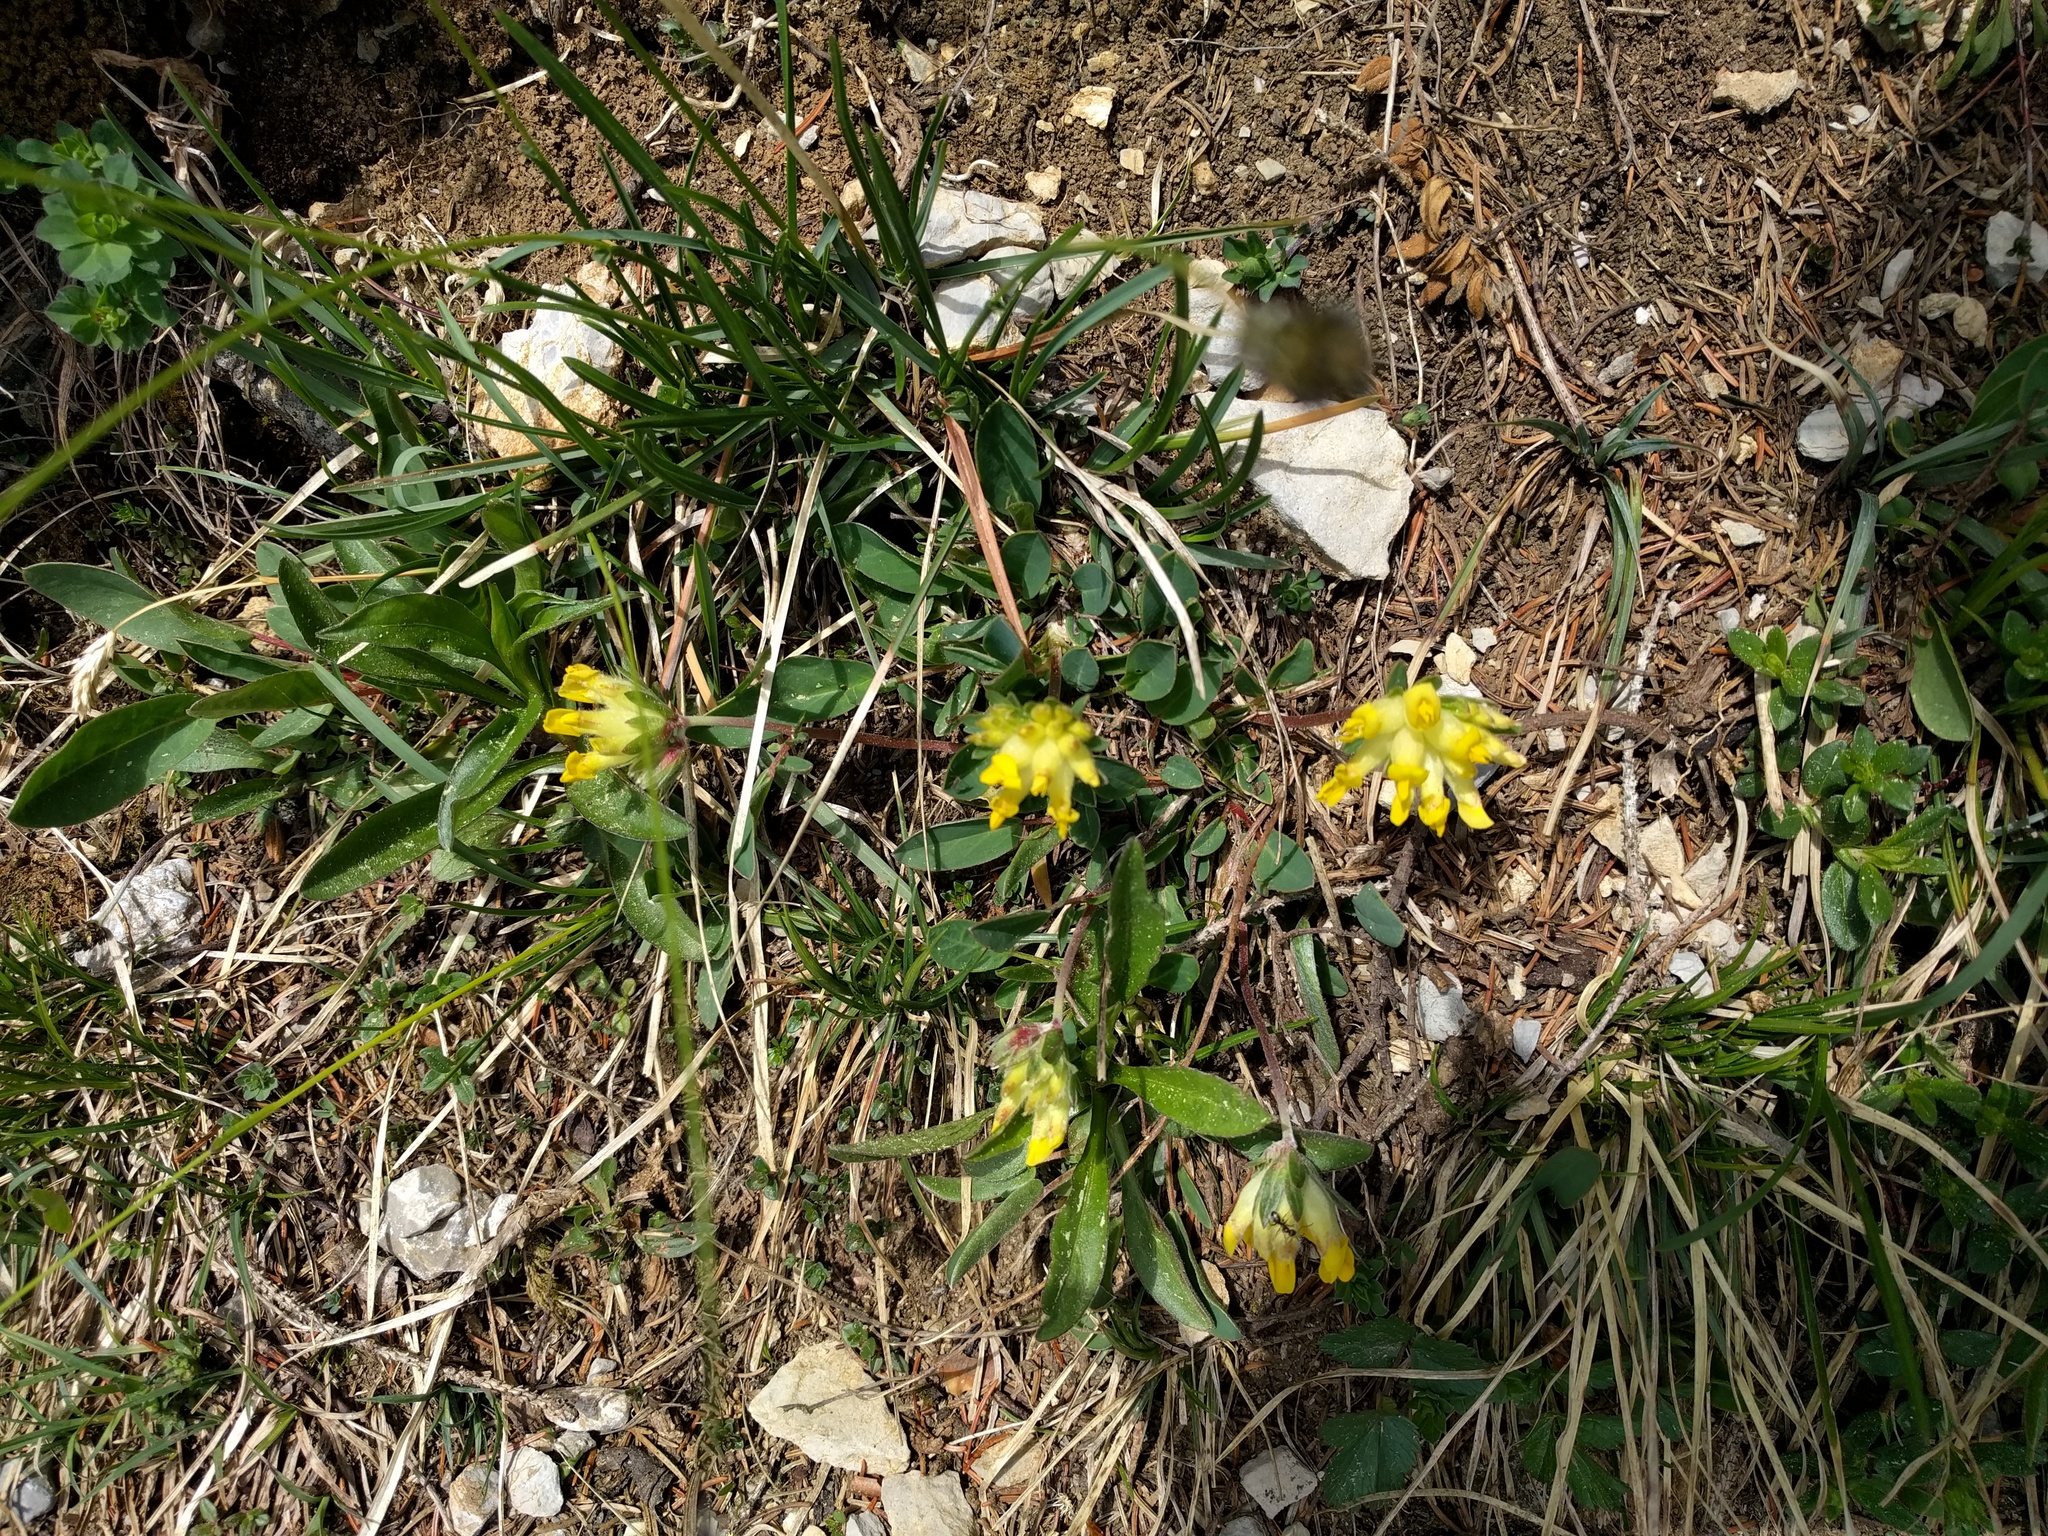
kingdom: Plantae
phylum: Tracheophyta
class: Magnoliopsida
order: Fabales
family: Fabaceae
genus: Anthyllis
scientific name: Anthyllis vulneraria
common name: Kidney vetch
